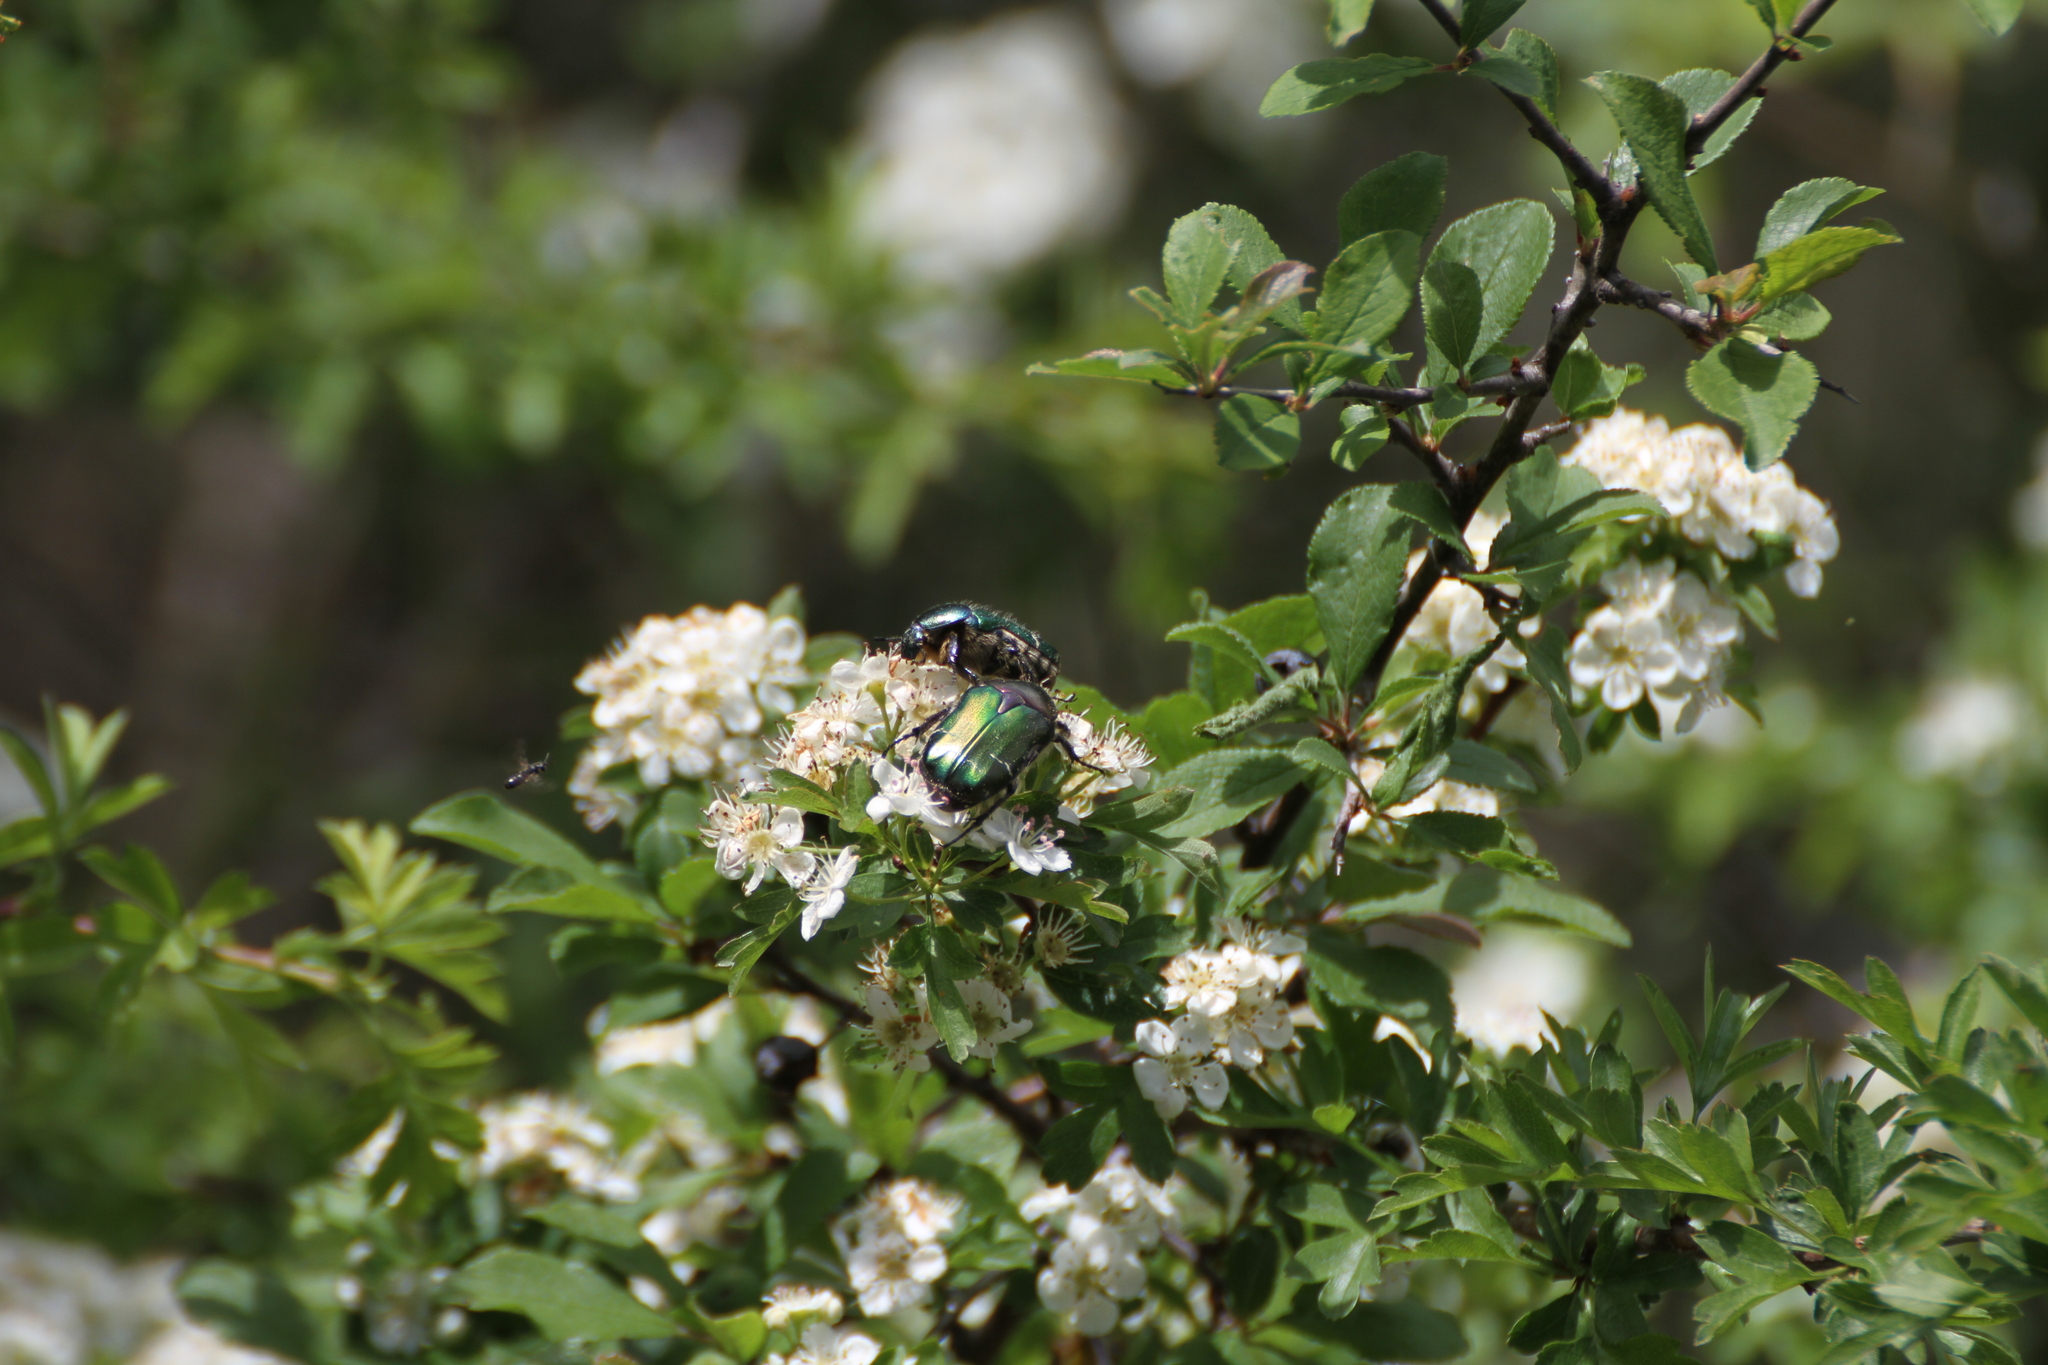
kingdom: Animalia
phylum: Arthropoda
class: Insecta
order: Coleoptera
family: Scarabaeidae
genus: Cetonia
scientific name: Cetonia aurata
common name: Rose chafer
